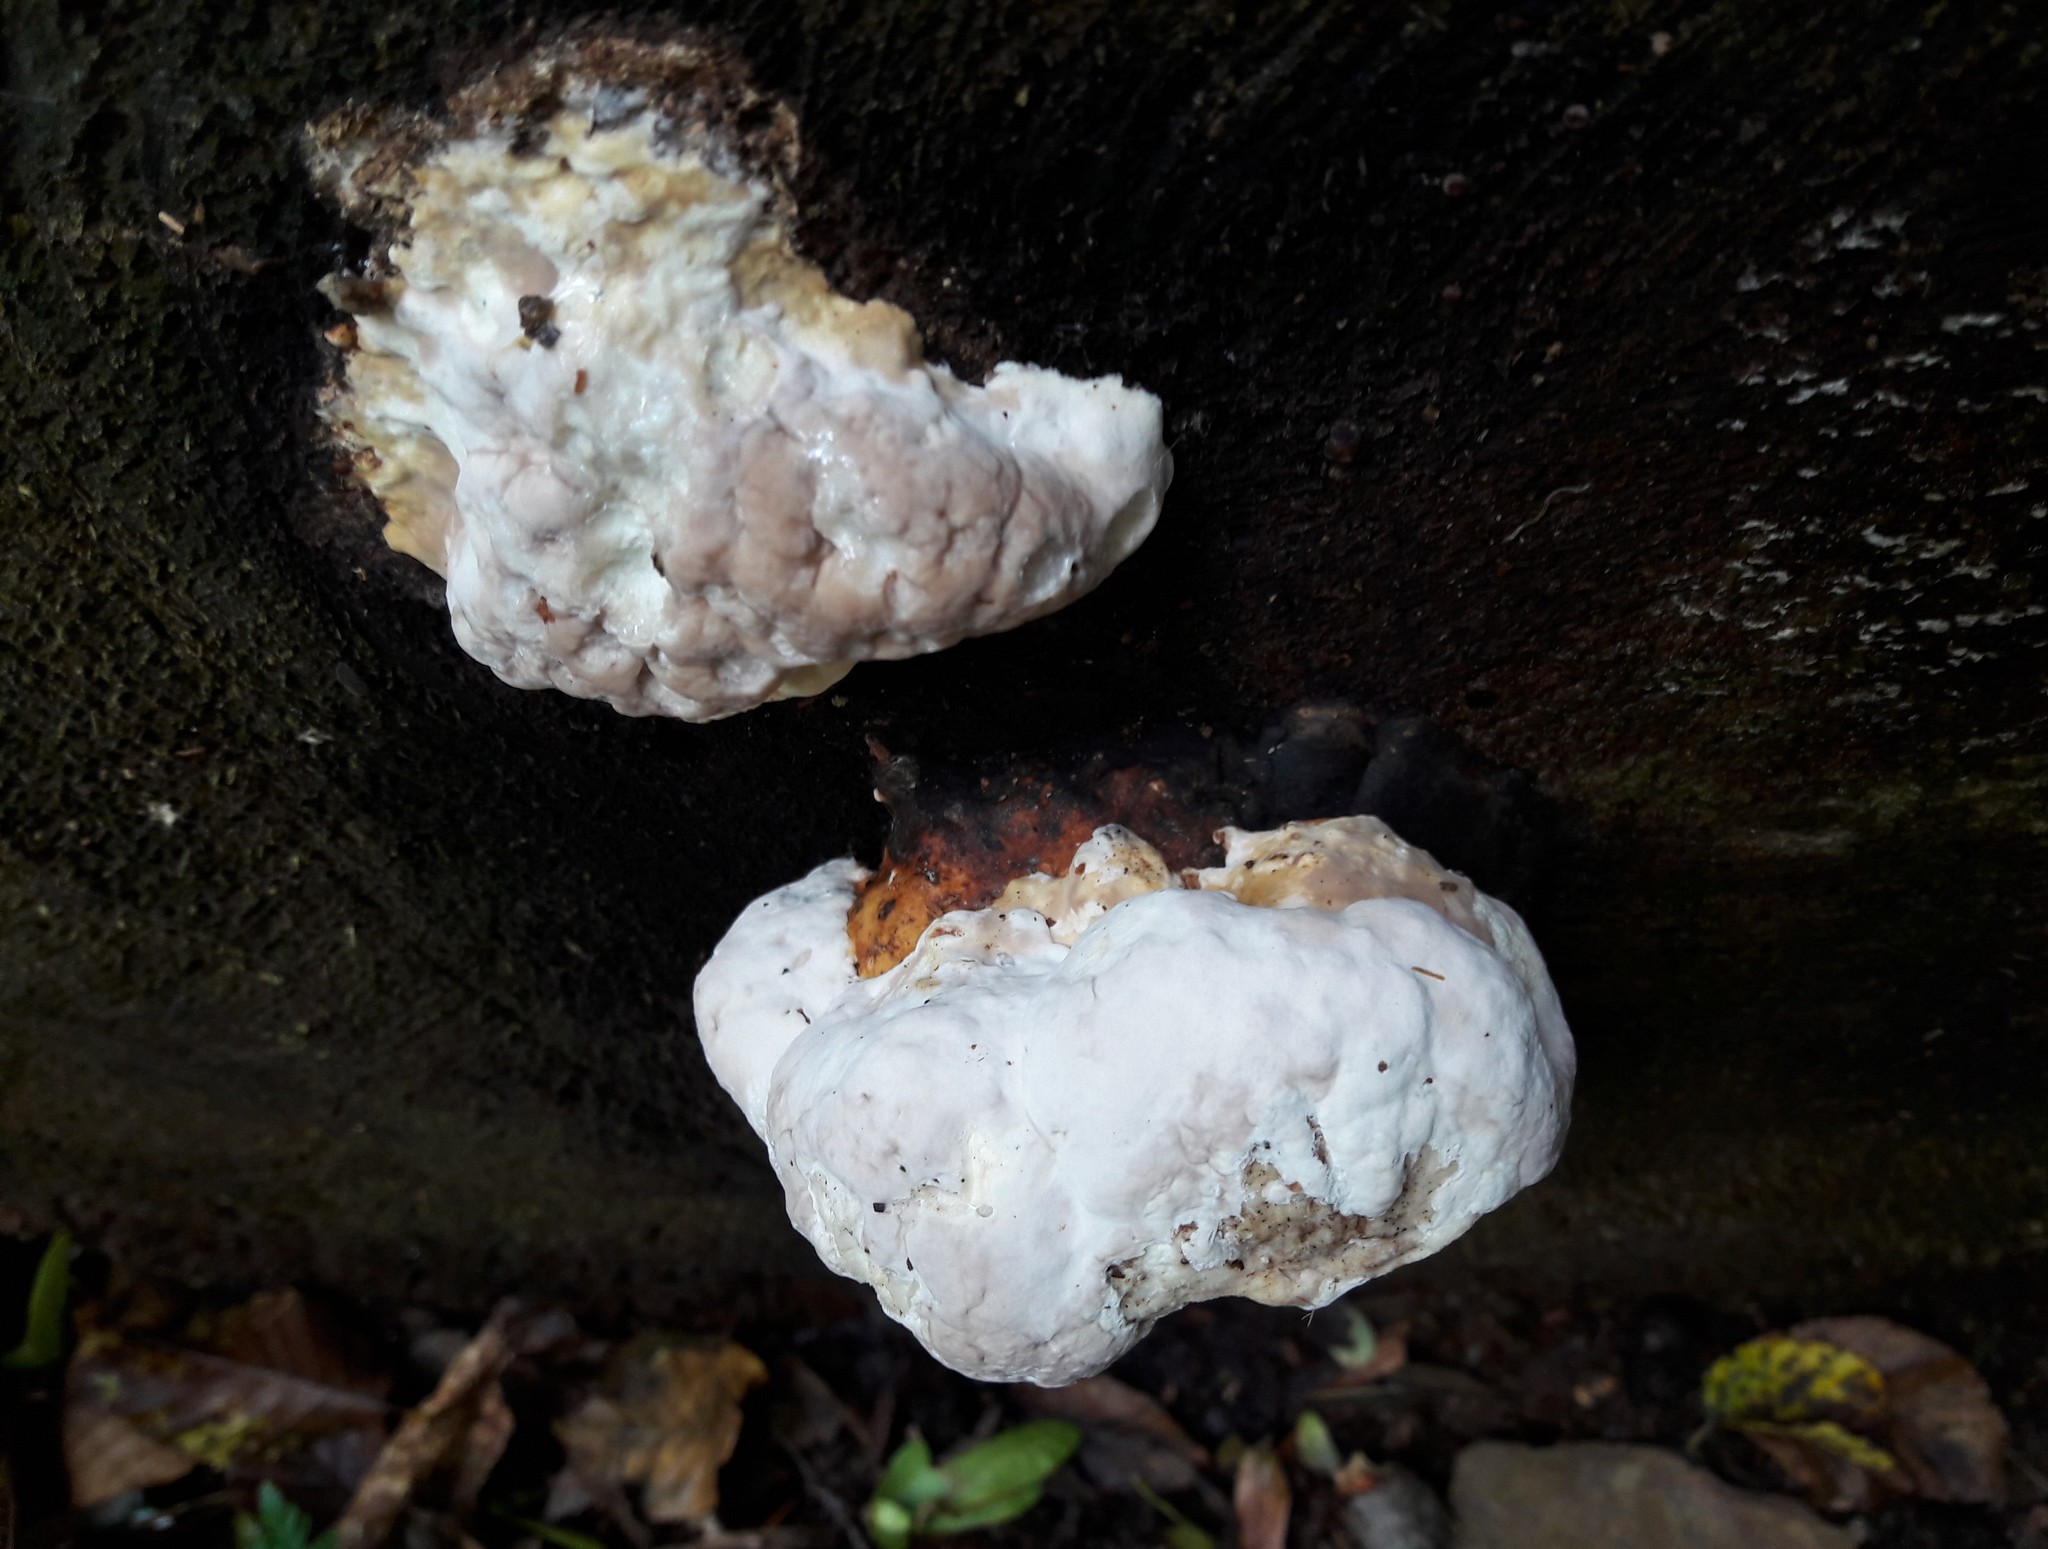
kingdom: Fungi
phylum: Basidiomycota
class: Agaricomycetes
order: Polyporales
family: Fomitopsidaceae
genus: Fomitopsis
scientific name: Fomitopsis pinicola
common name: Red-belted bracket
